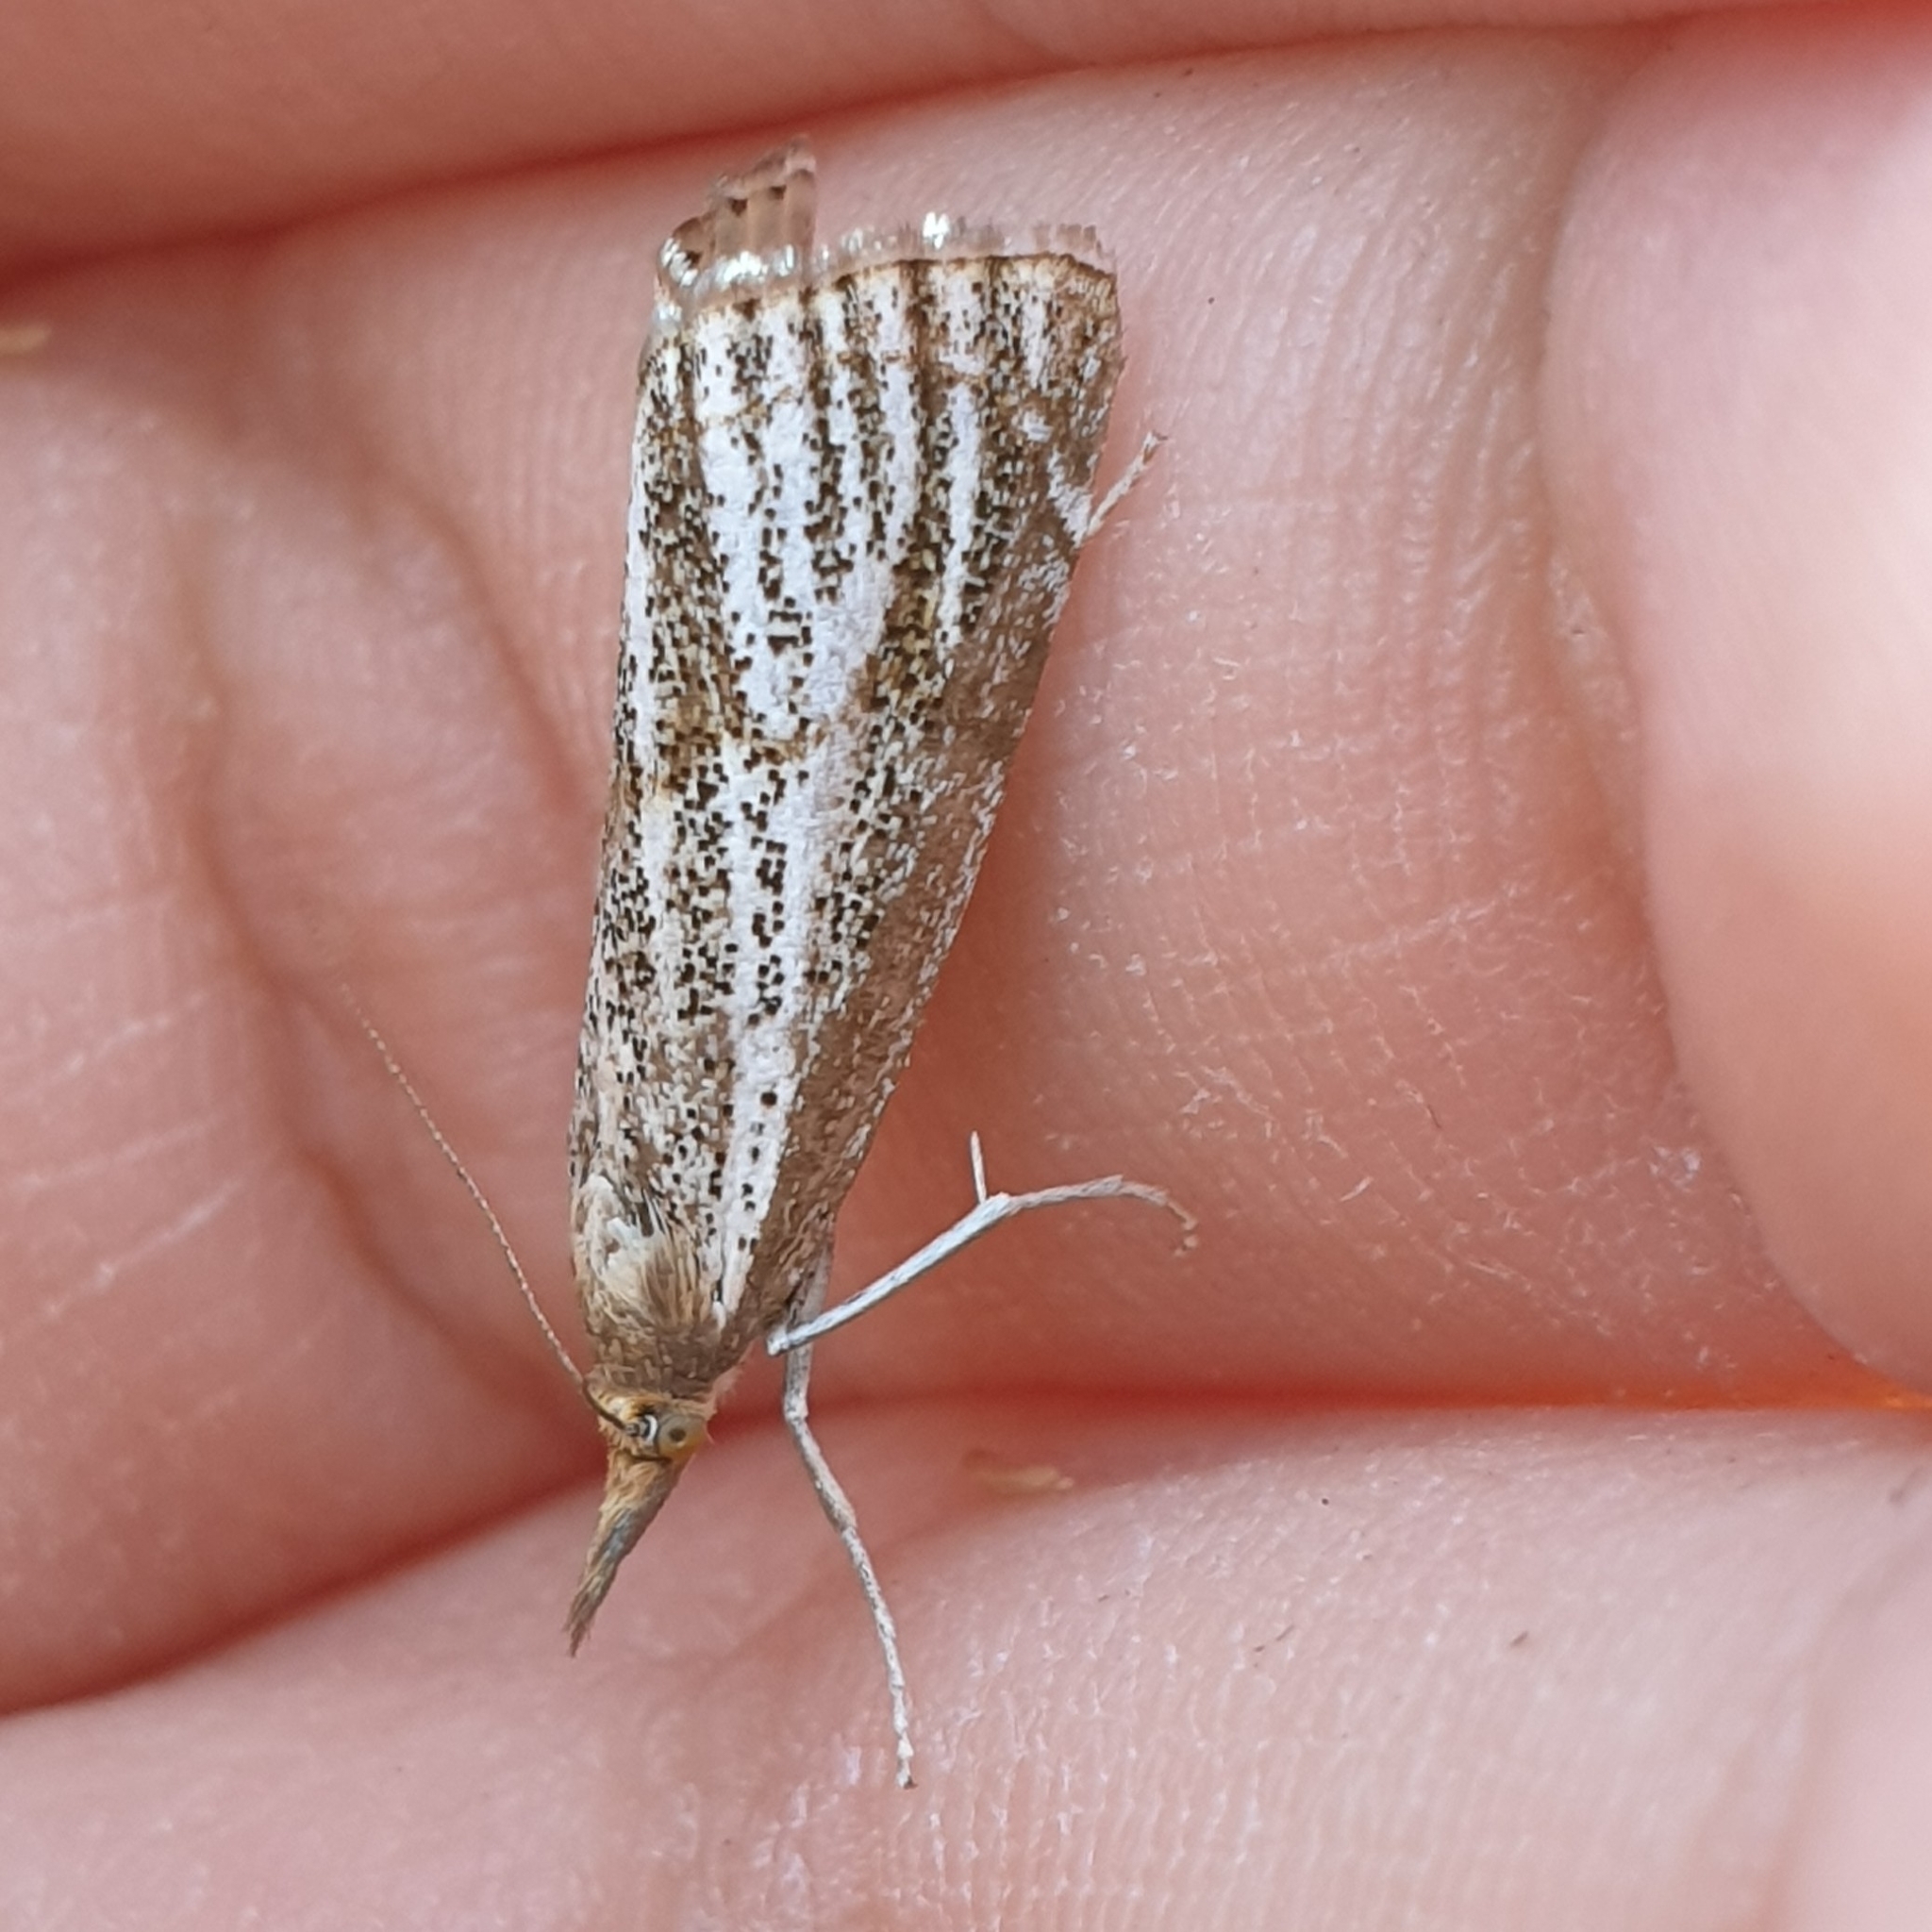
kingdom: Animalia
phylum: Arthropoda
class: Insecta
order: Lepidoptera
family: Crambidae
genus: Thisanotia
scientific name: Thisanotia chrysonuchella
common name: Powdered grass-veneer
